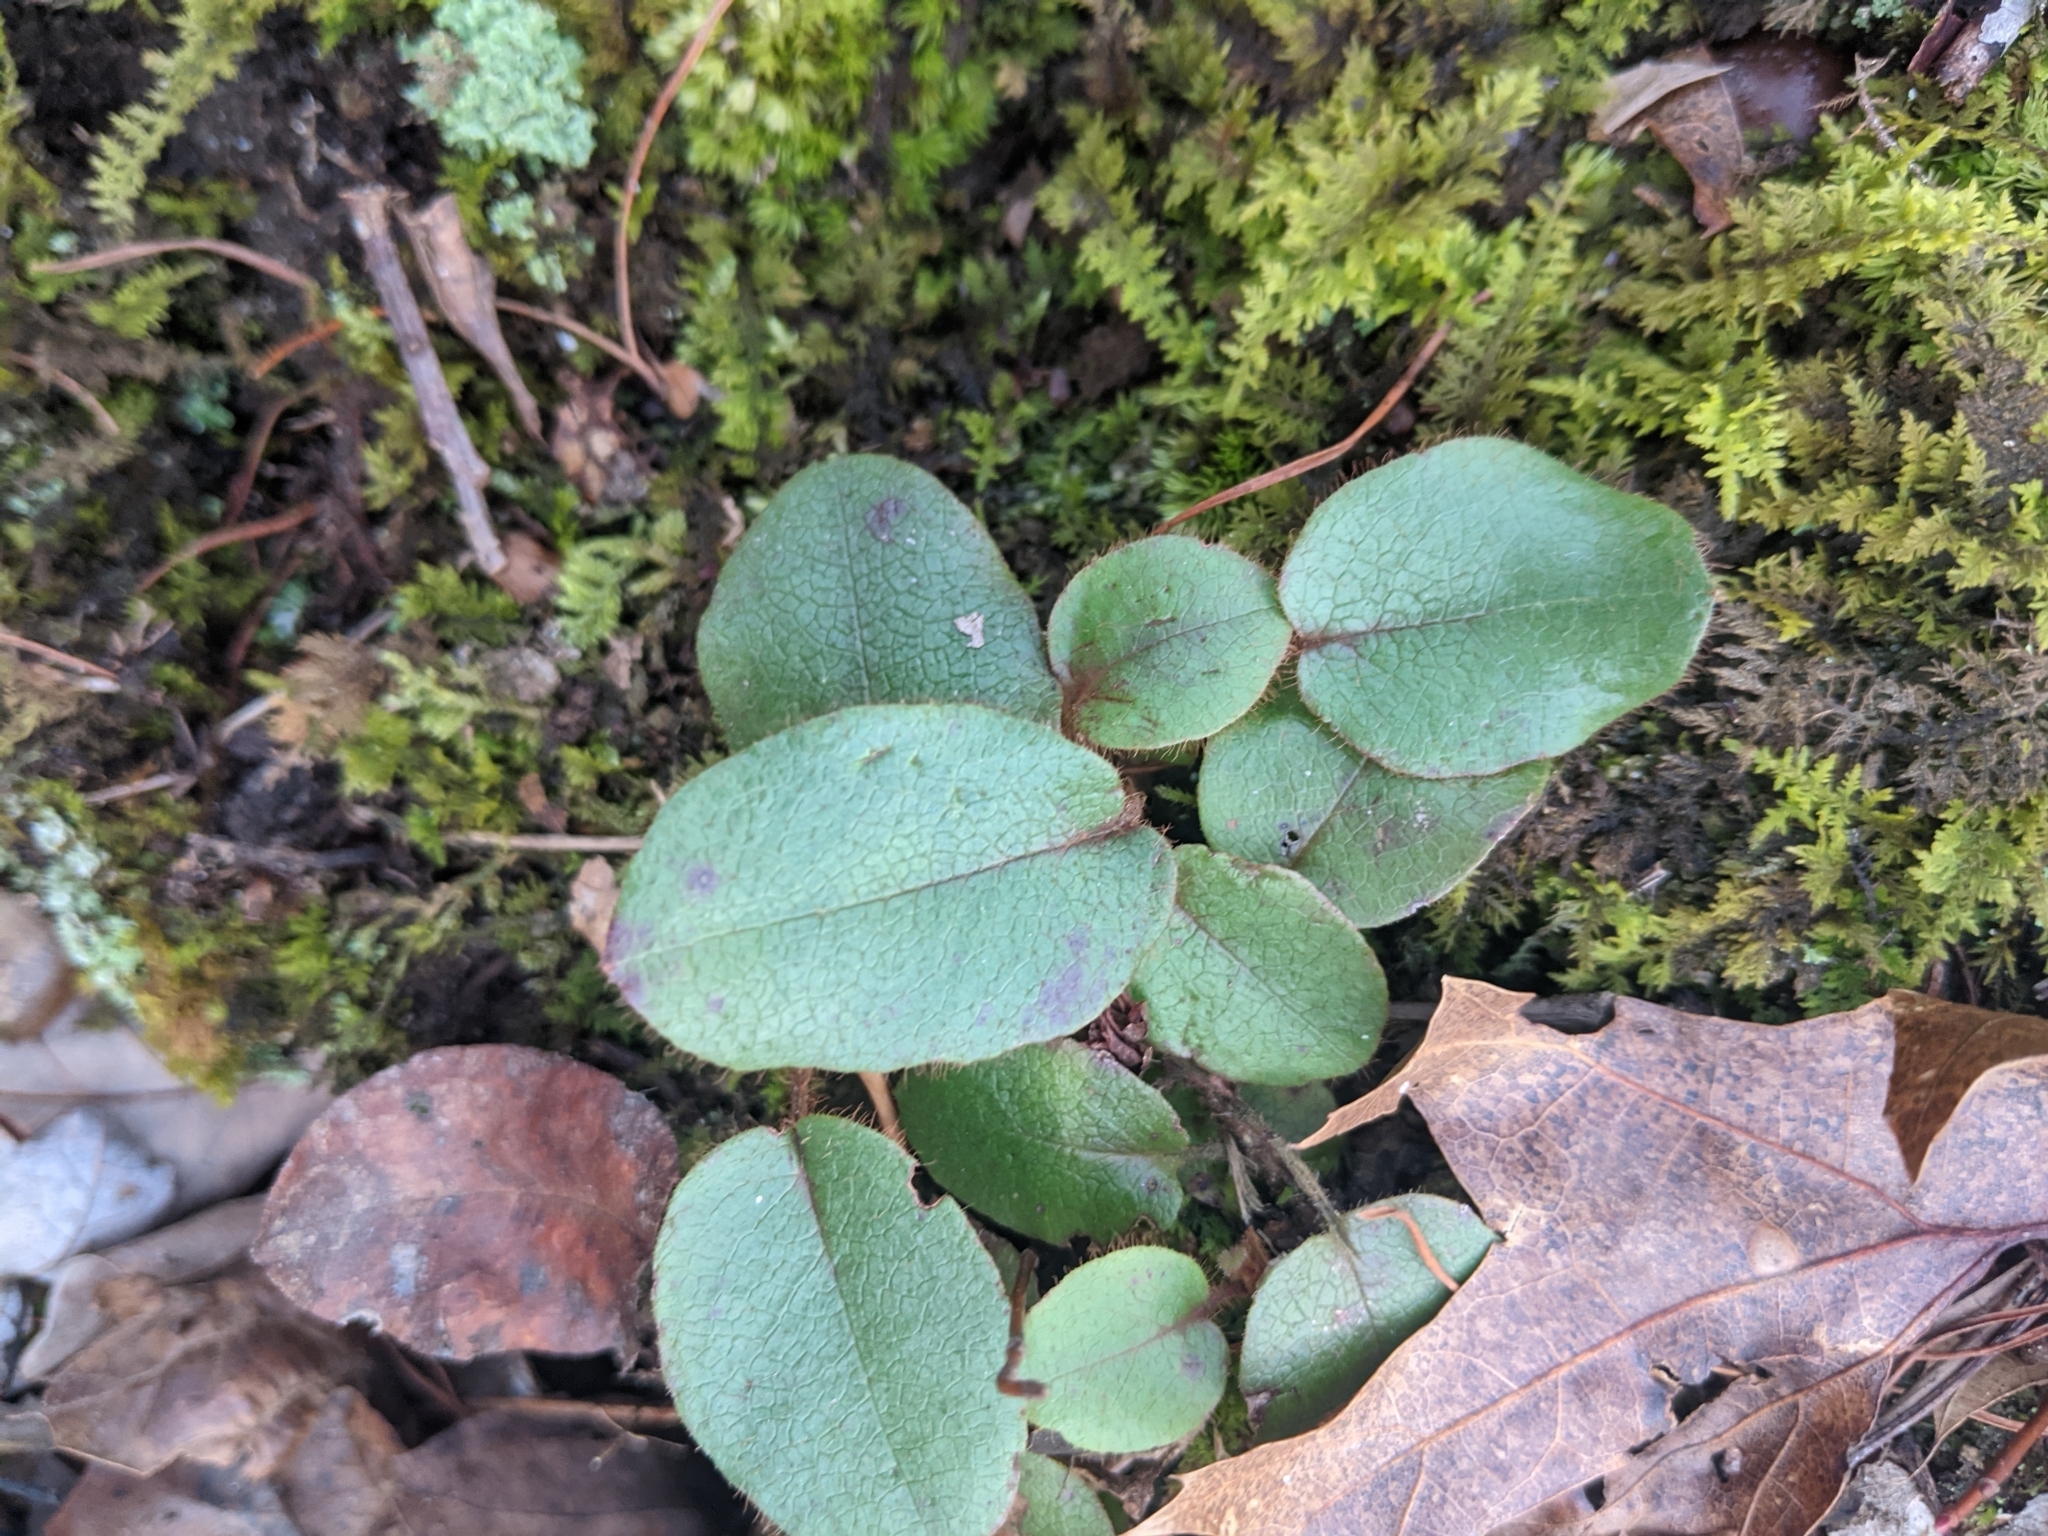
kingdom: Plantae
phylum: Tracheophyta
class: Magnoliopsida
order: Ericales
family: Ericaceae
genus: Epigaea
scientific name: Epigaea repens
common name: Gravelroot
